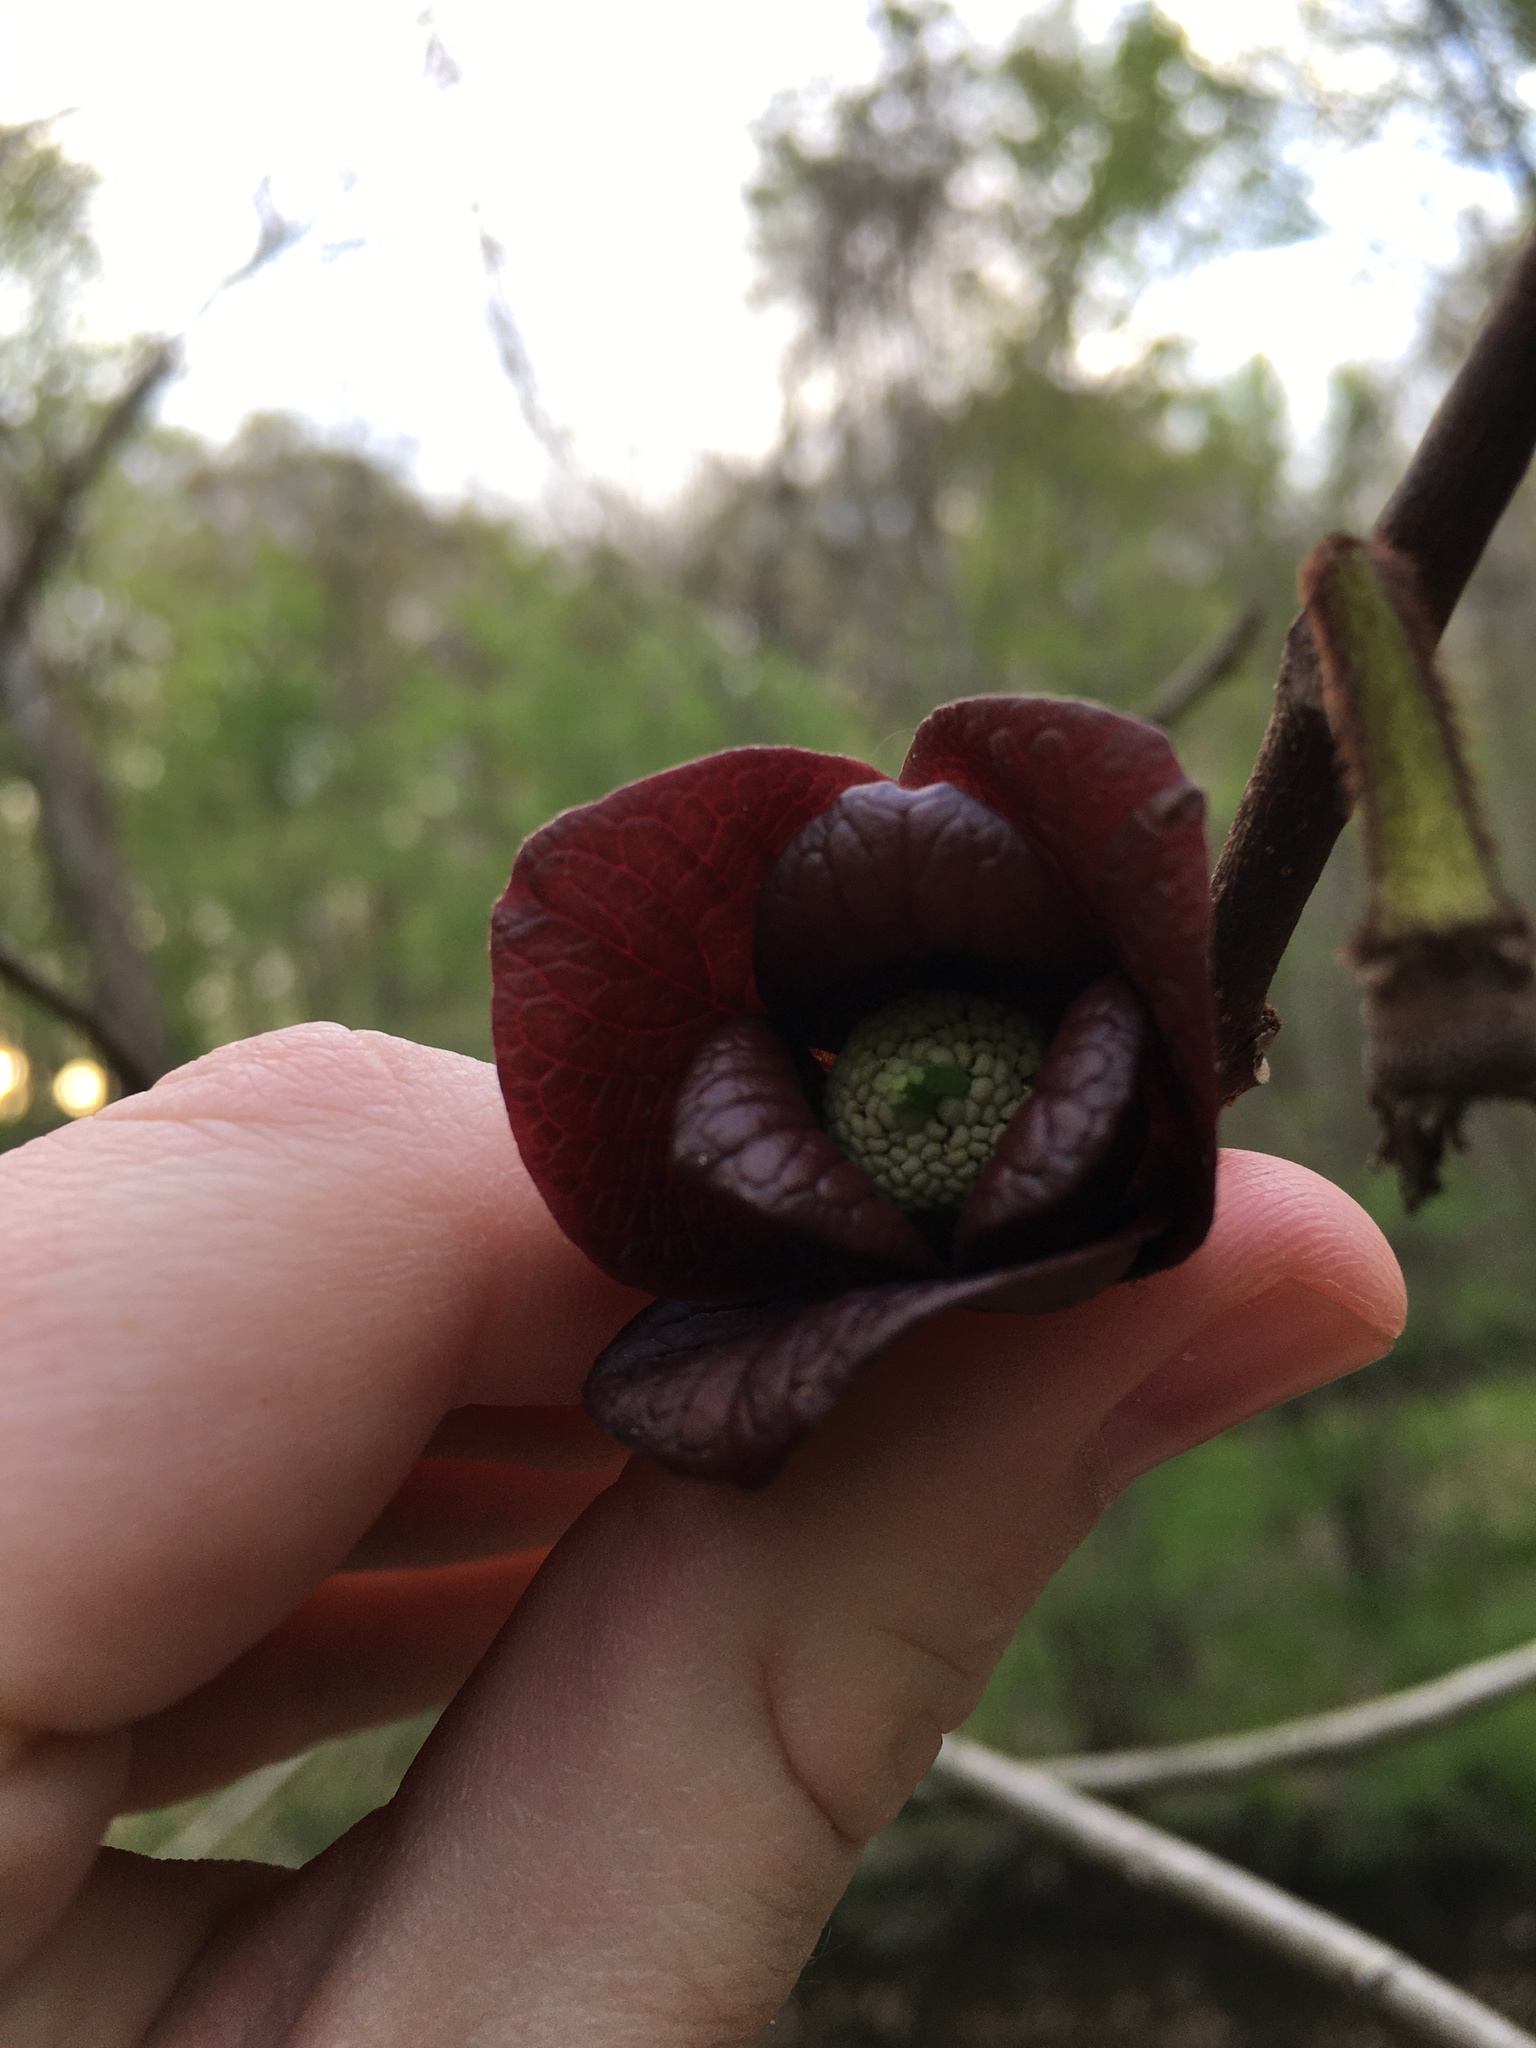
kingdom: Plantae
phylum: Tracheophyta
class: Magnoliopsida
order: Magnoliales
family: Annonaceae
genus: Asimina
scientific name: Asimina triloba
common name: Dog-banana
